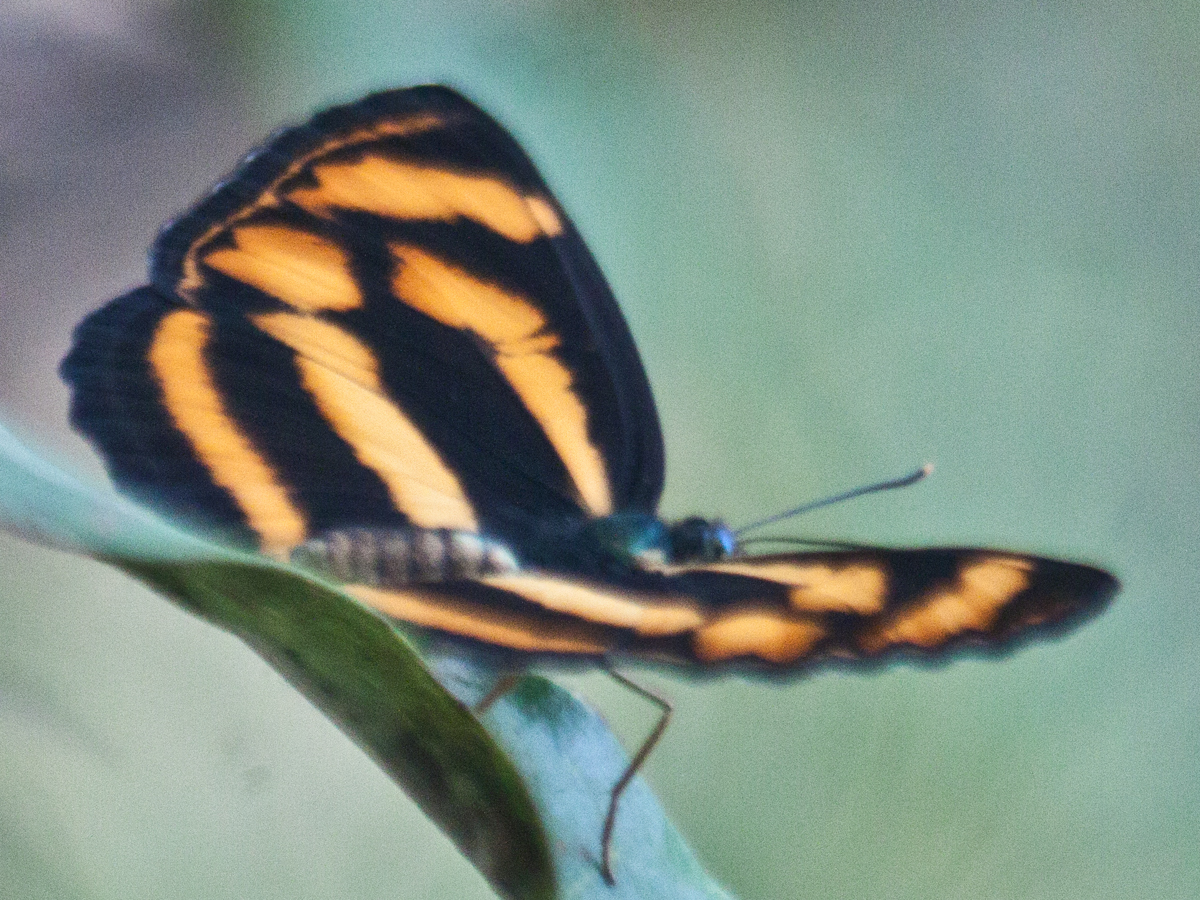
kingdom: Animalia
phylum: Arthropoda
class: Insecta
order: Lepidoptera
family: Nymphalidae
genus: Lasippa
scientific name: Lasippa
